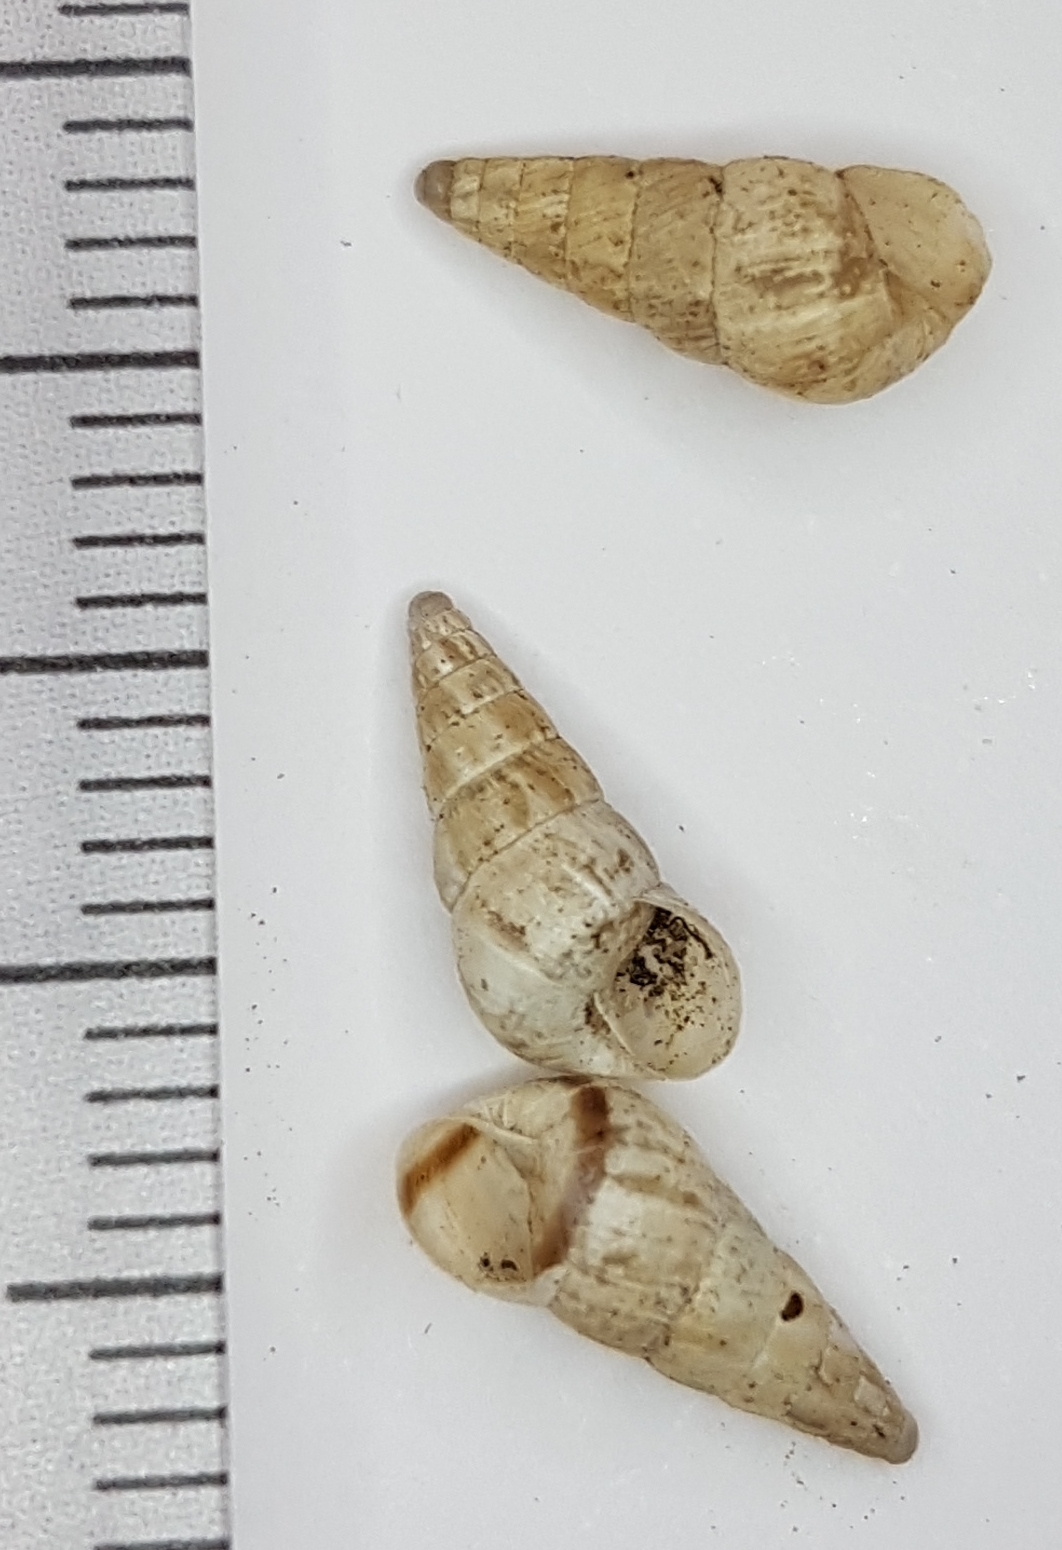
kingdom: Animalia
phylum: Mollusca
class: Gastropoda
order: Stylommatophora
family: Geomitridae
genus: Cochlicella
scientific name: Cochlicella acuta
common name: Pointed snail
